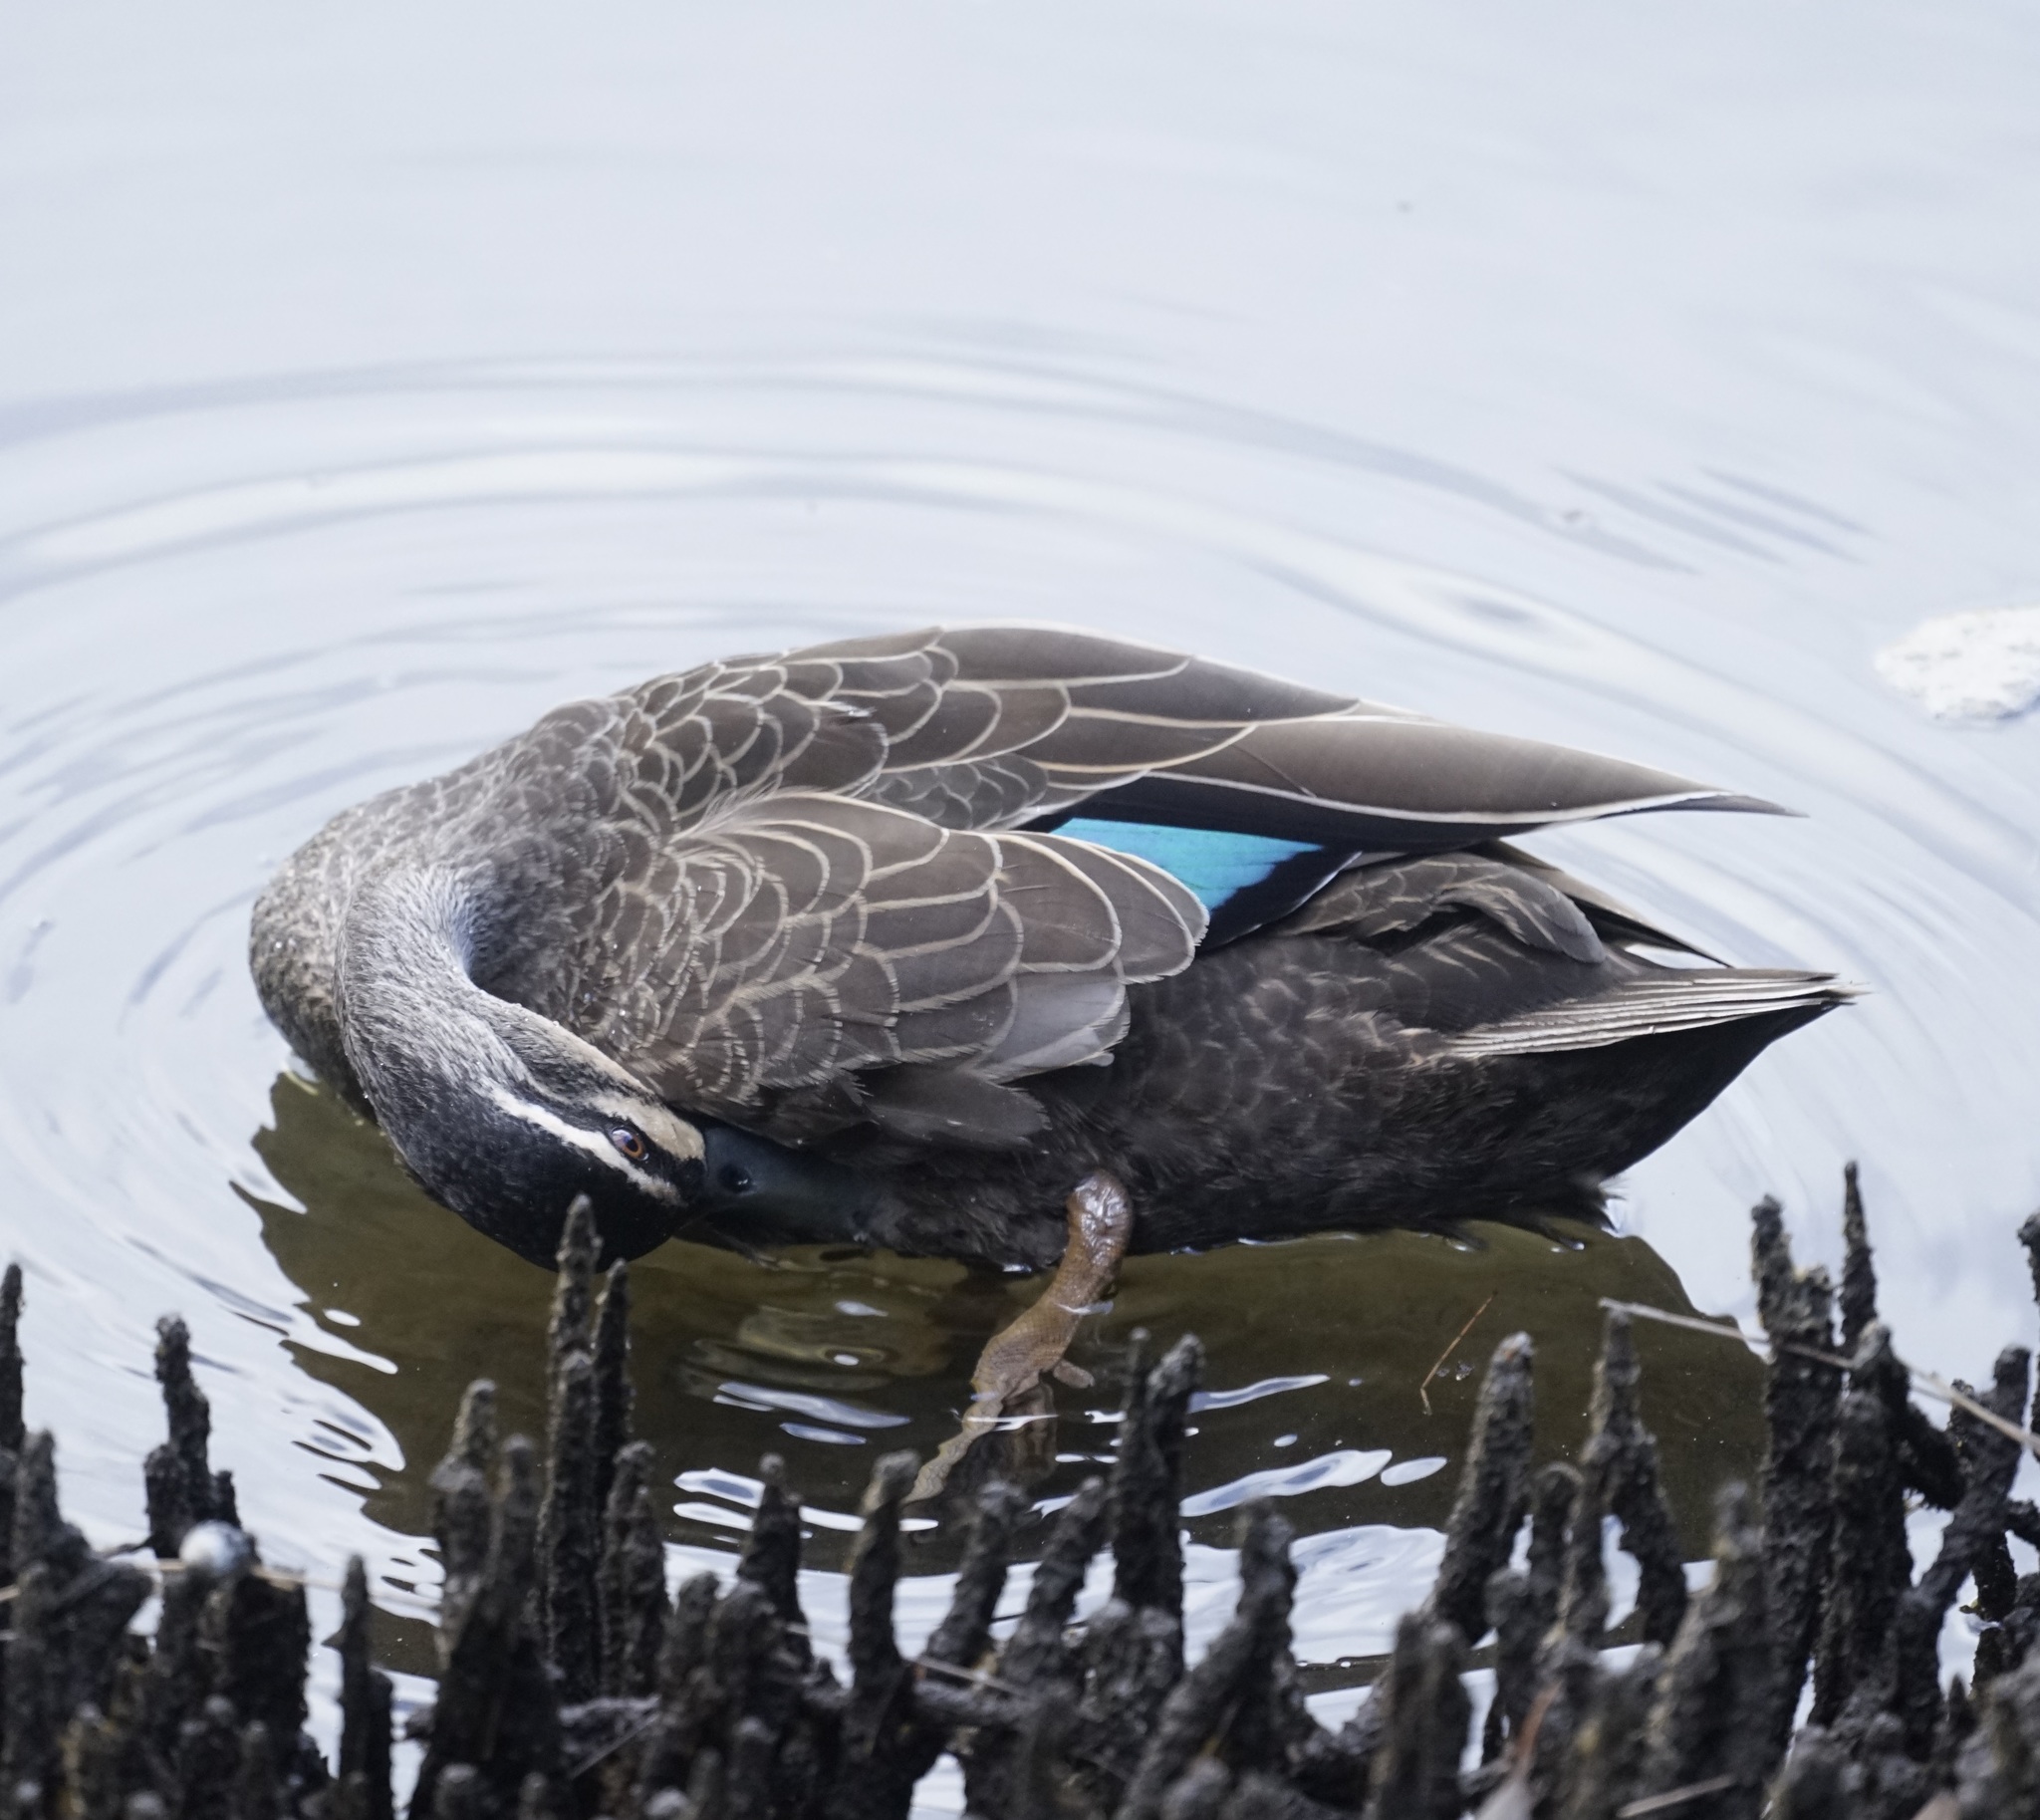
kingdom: Animalia
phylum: Chordata
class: Aves
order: Anseriformes
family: Anatidae
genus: Anas
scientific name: Anas superciliosa
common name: Pacific black duck
